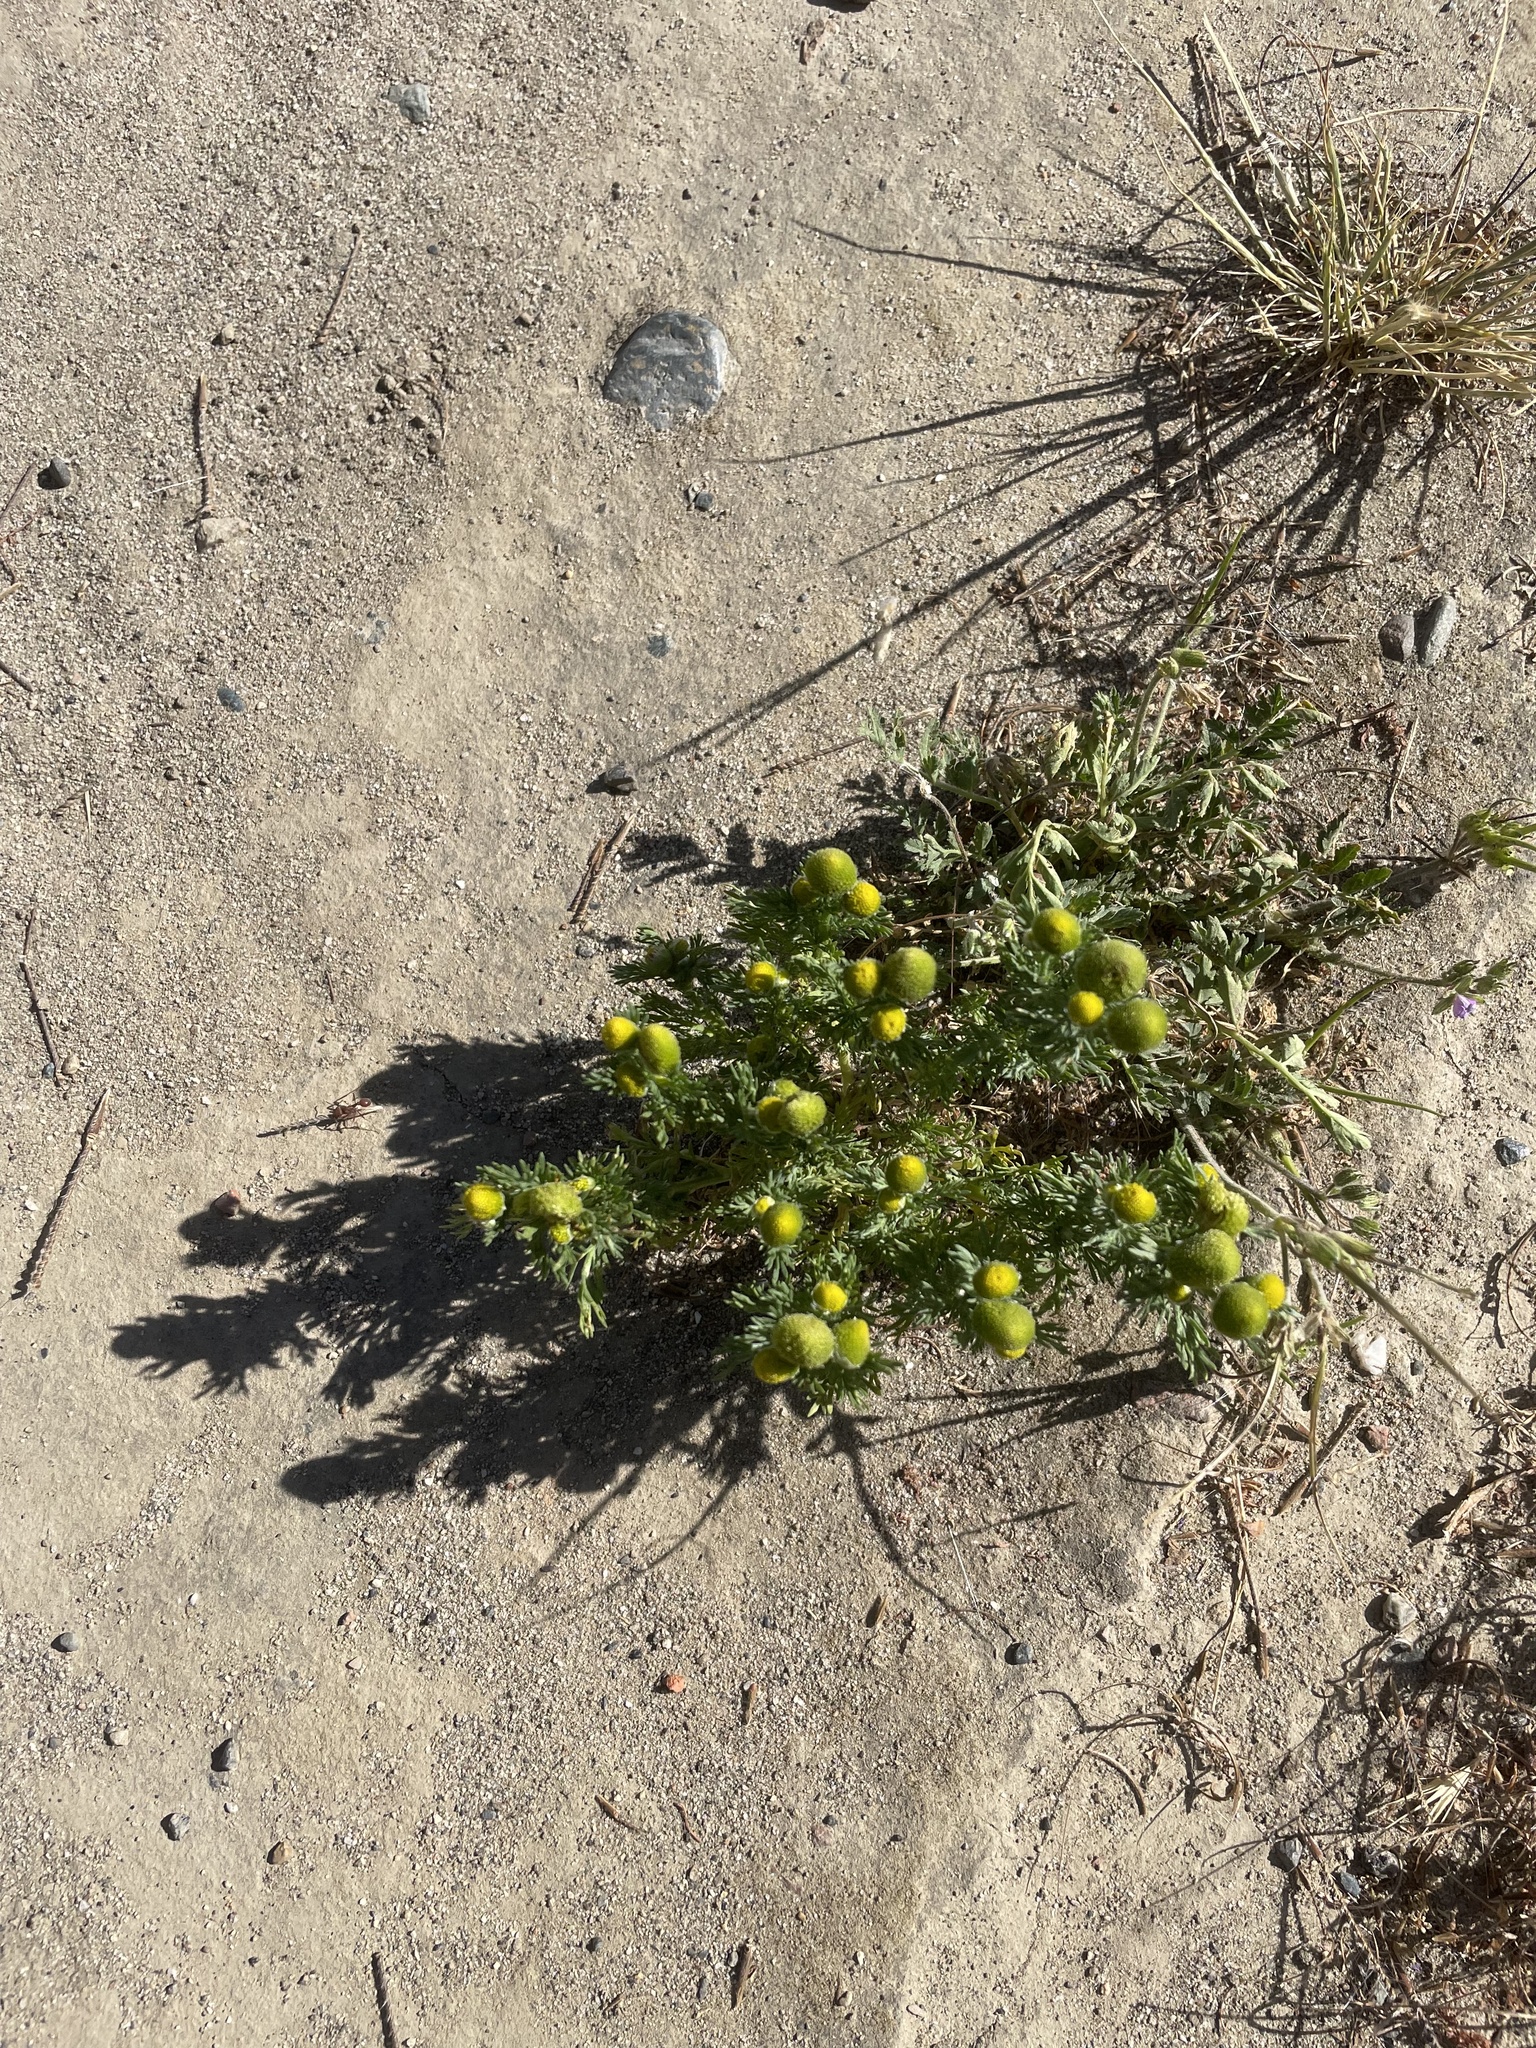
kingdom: Plantae
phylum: Tracheophyta
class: Magnoliopsida
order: Asterales
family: Asteraceae
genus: Matricaria
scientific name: Matricaria discoidea
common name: Disc mayweed
